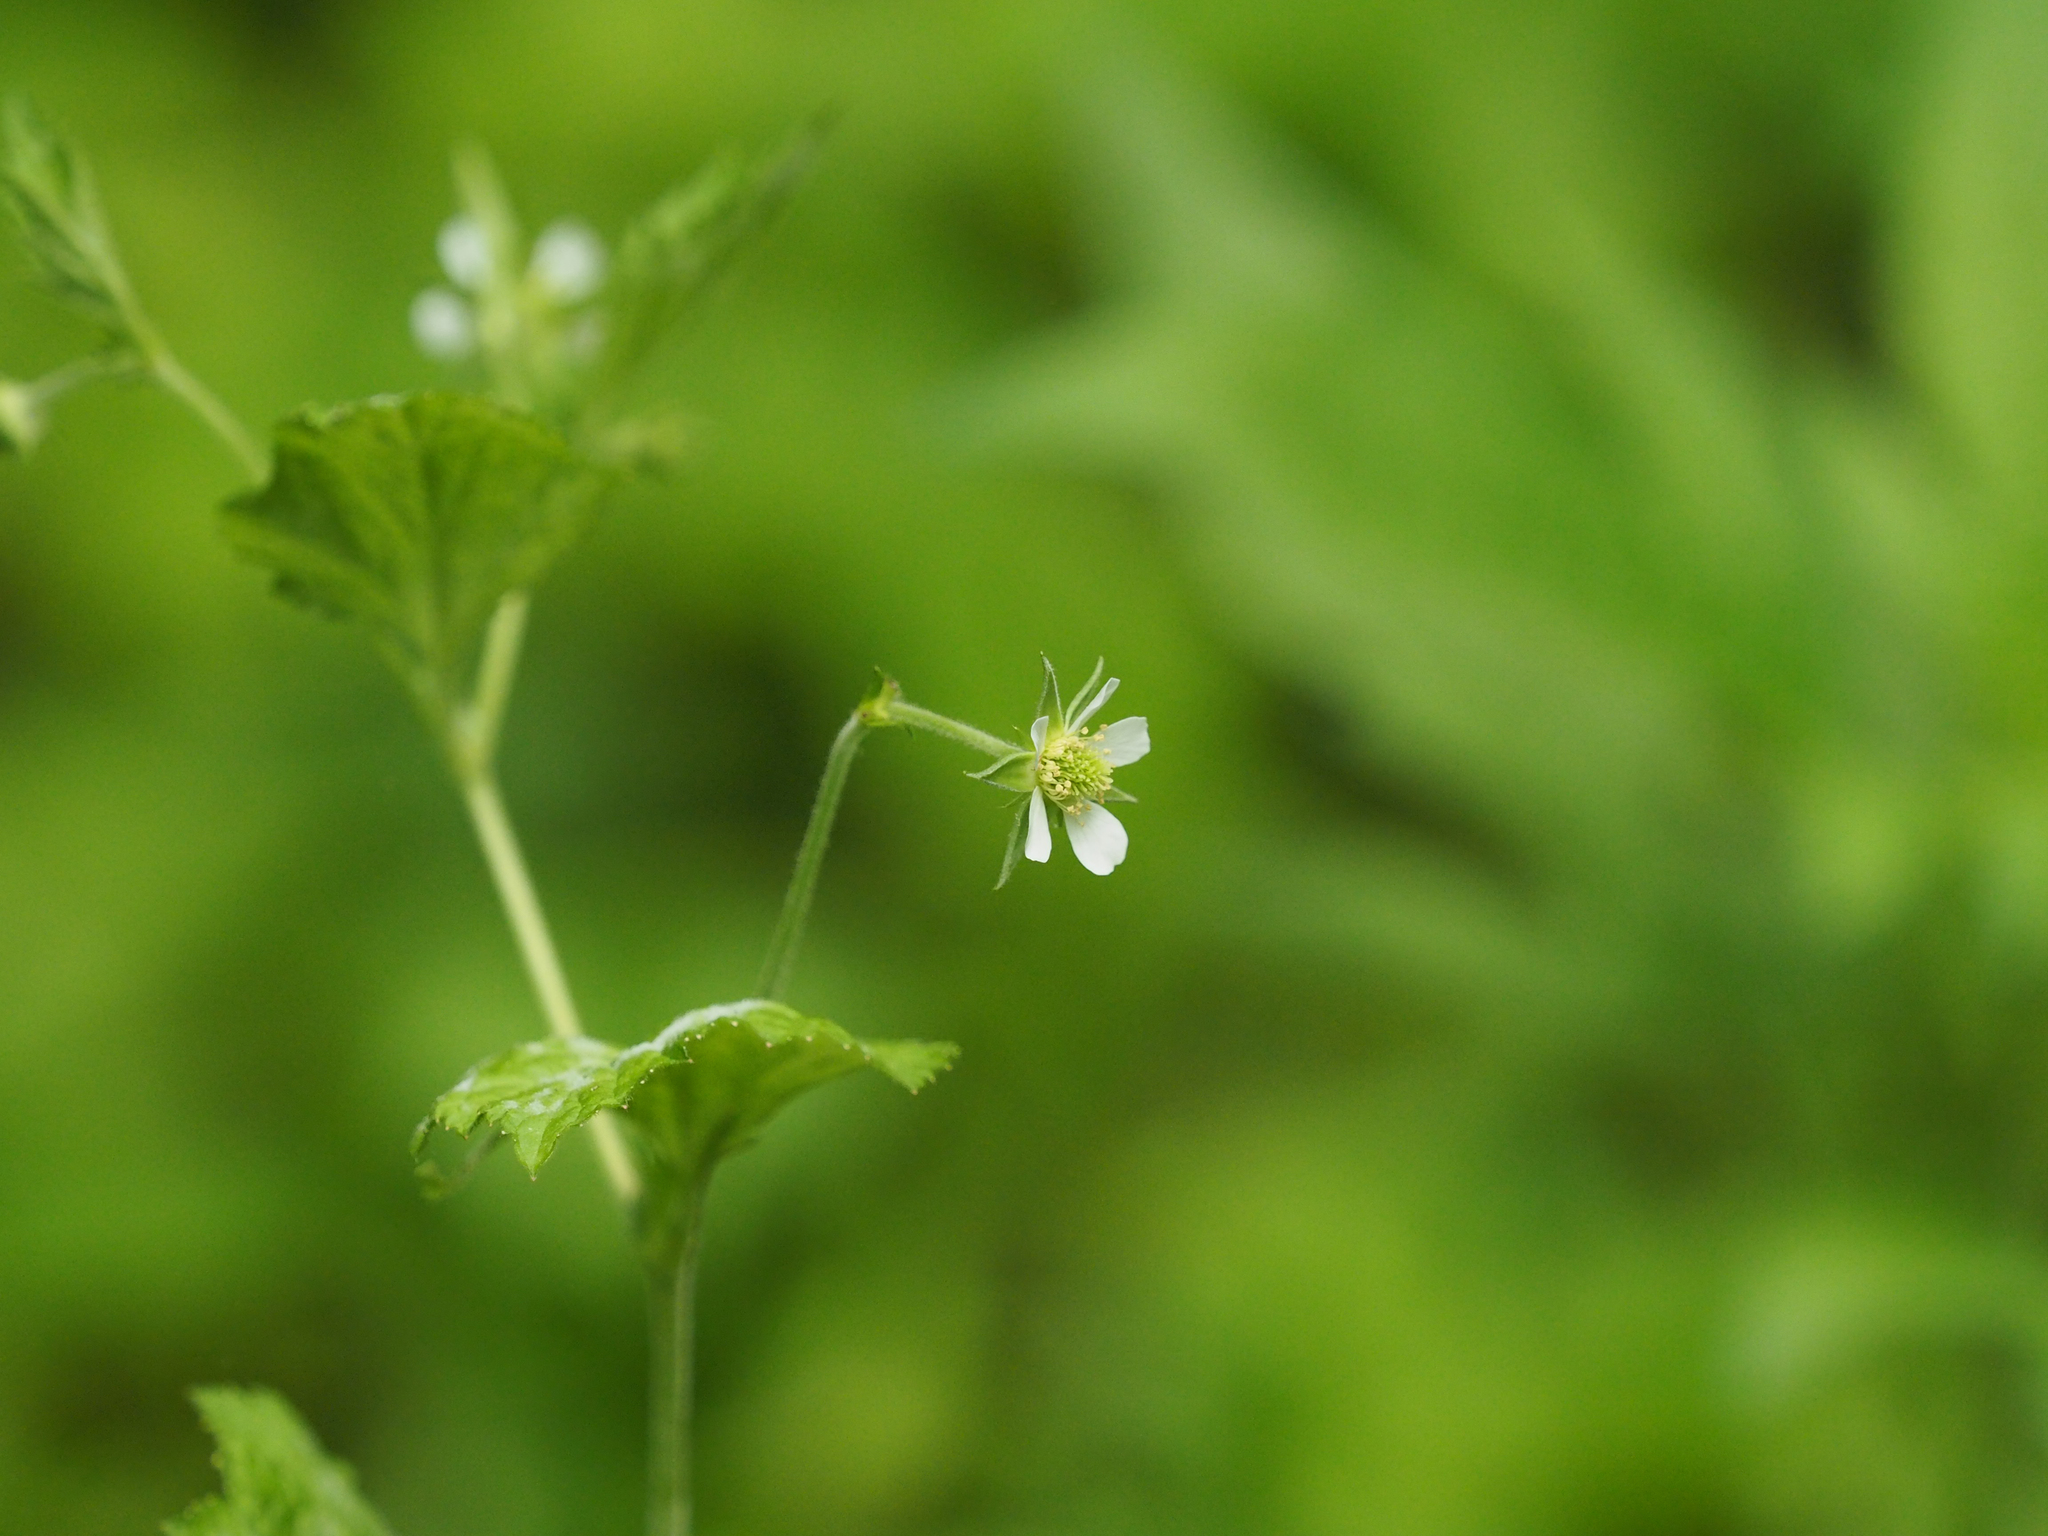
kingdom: Plantae
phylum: Tracheophyta
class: Magnoliopsida
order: Rosales
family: Rosaceae
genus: Geum
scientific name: Geum canadense
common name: White avens
